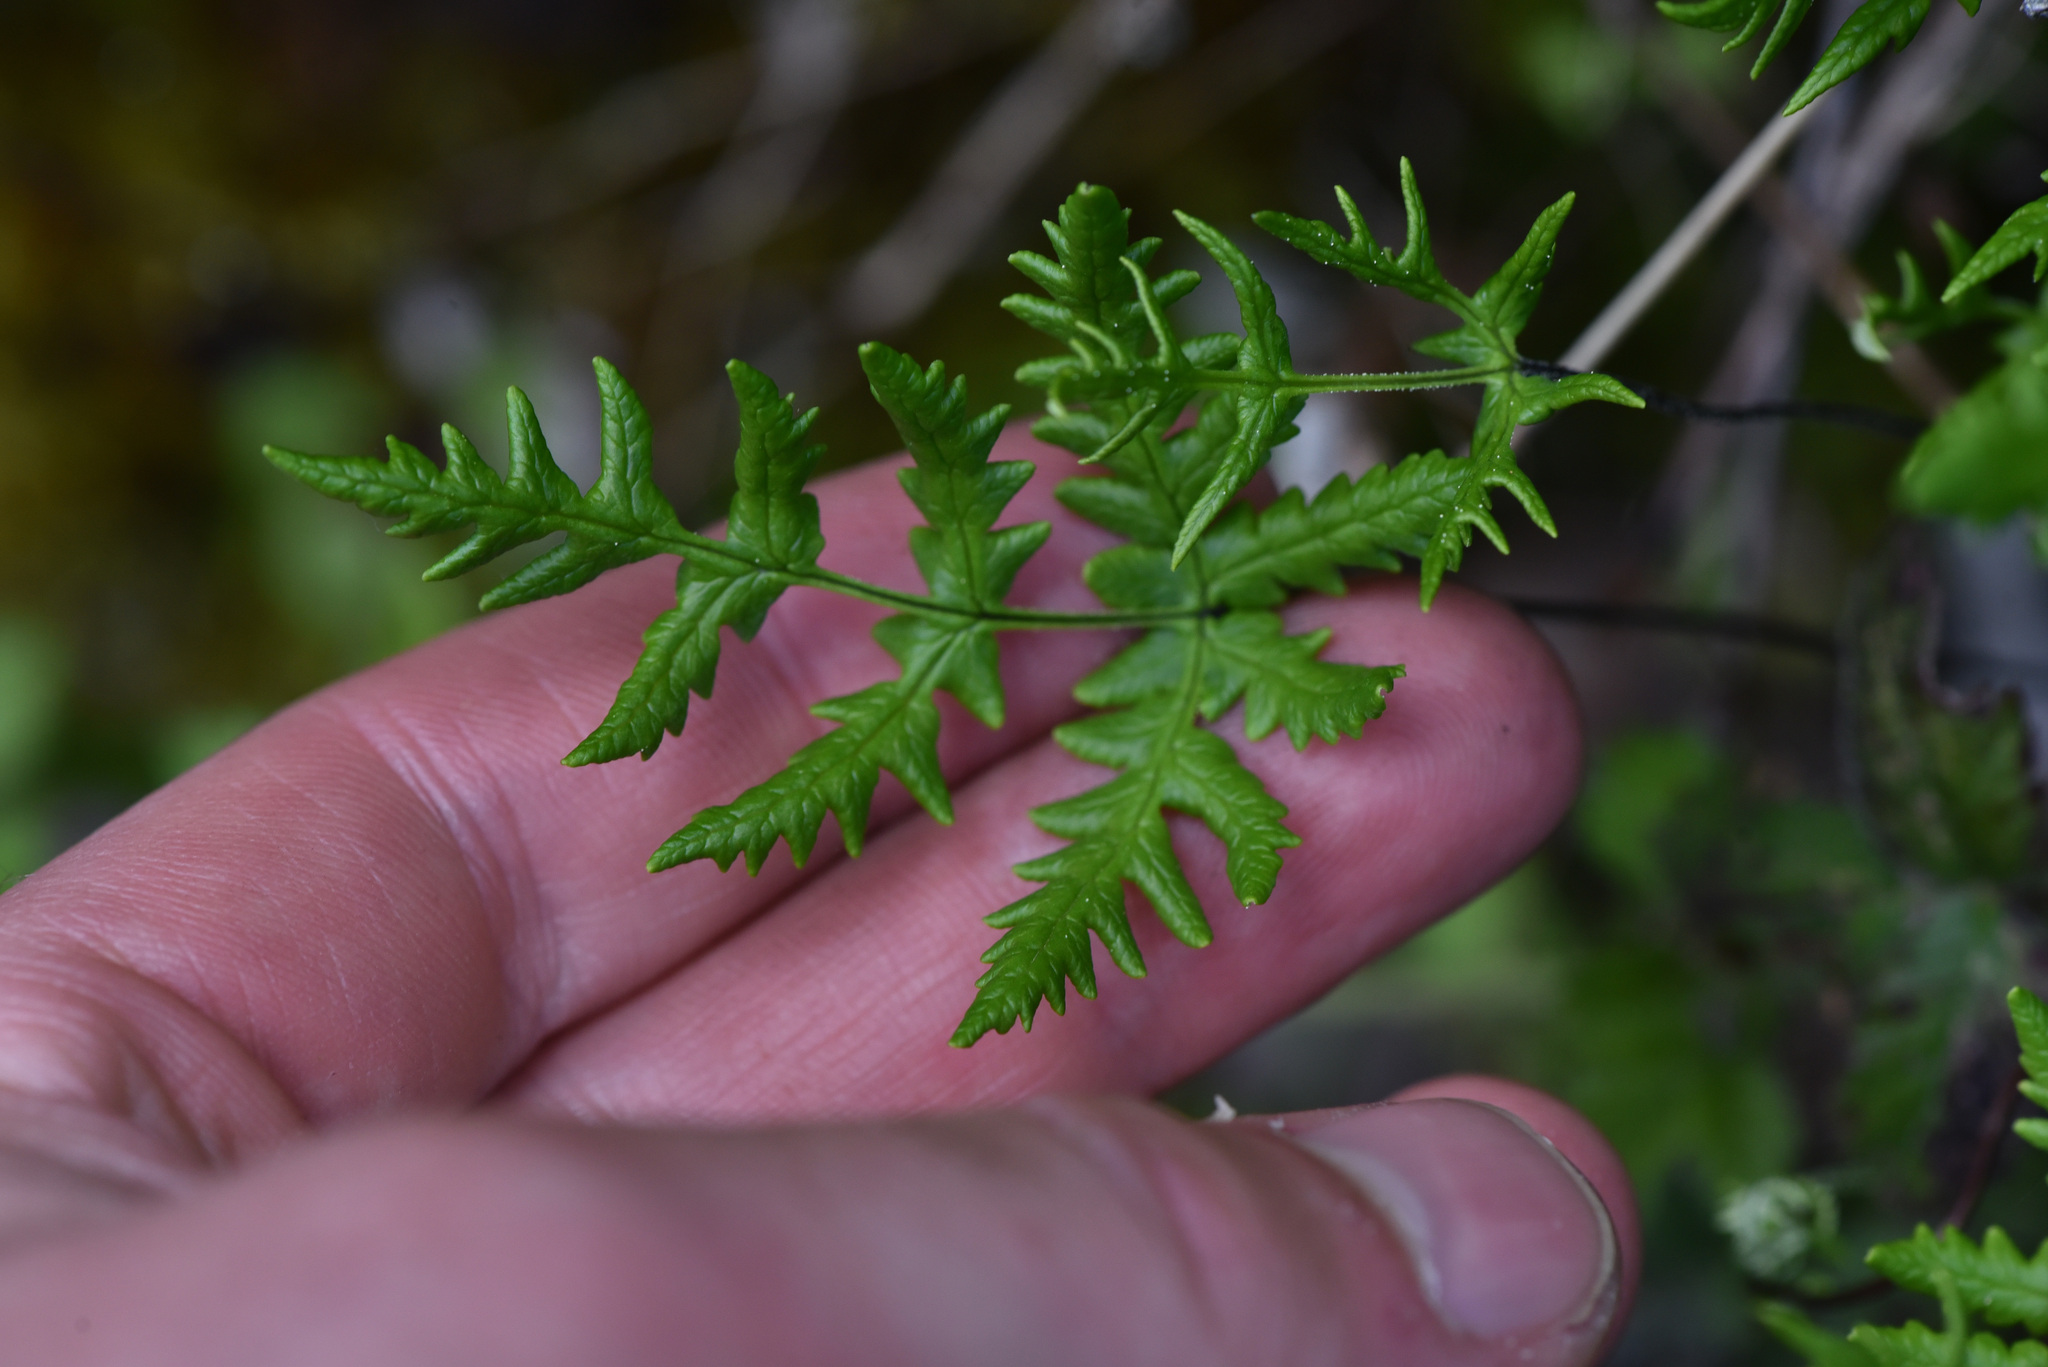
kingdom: Plantae
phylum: Tracheophyta
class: Polypodiopsida
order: Polypodiales
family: Pteridaceae
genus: Pentagramma
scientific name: Pentagramma triangularis
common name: Gold fern
